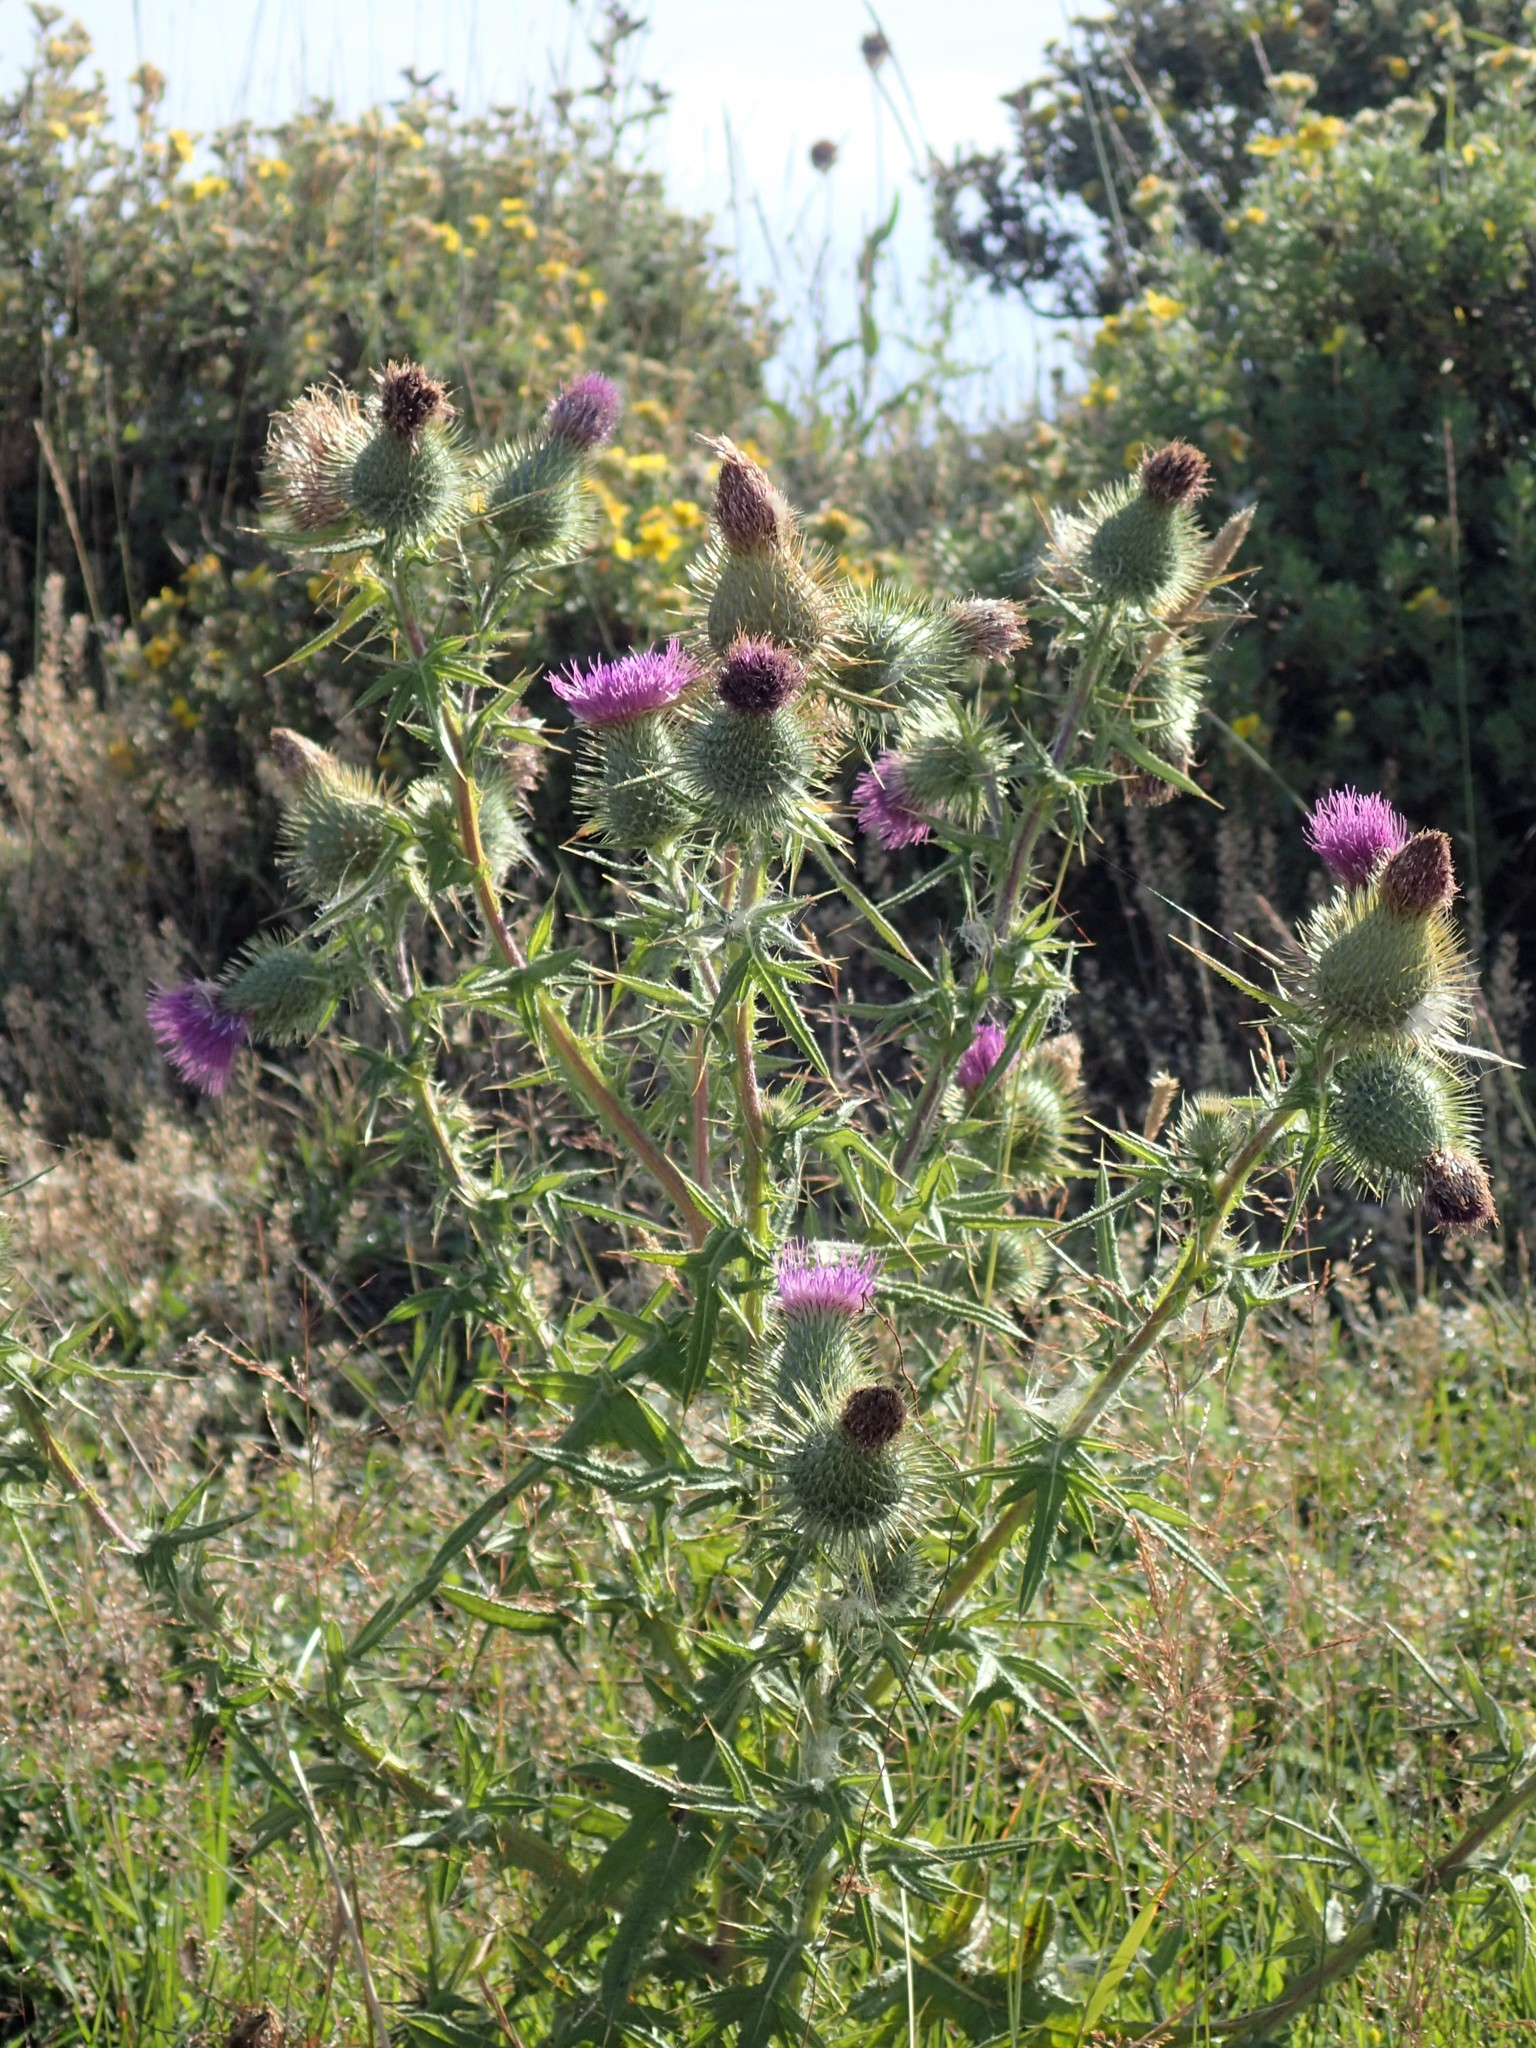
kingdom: Plantae
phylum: Tracheophyta
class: Magnoliopsida
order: Asterales
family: Asteraceae
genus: Cirsium
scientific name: Cirsium vulgare
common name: Bull thistle
